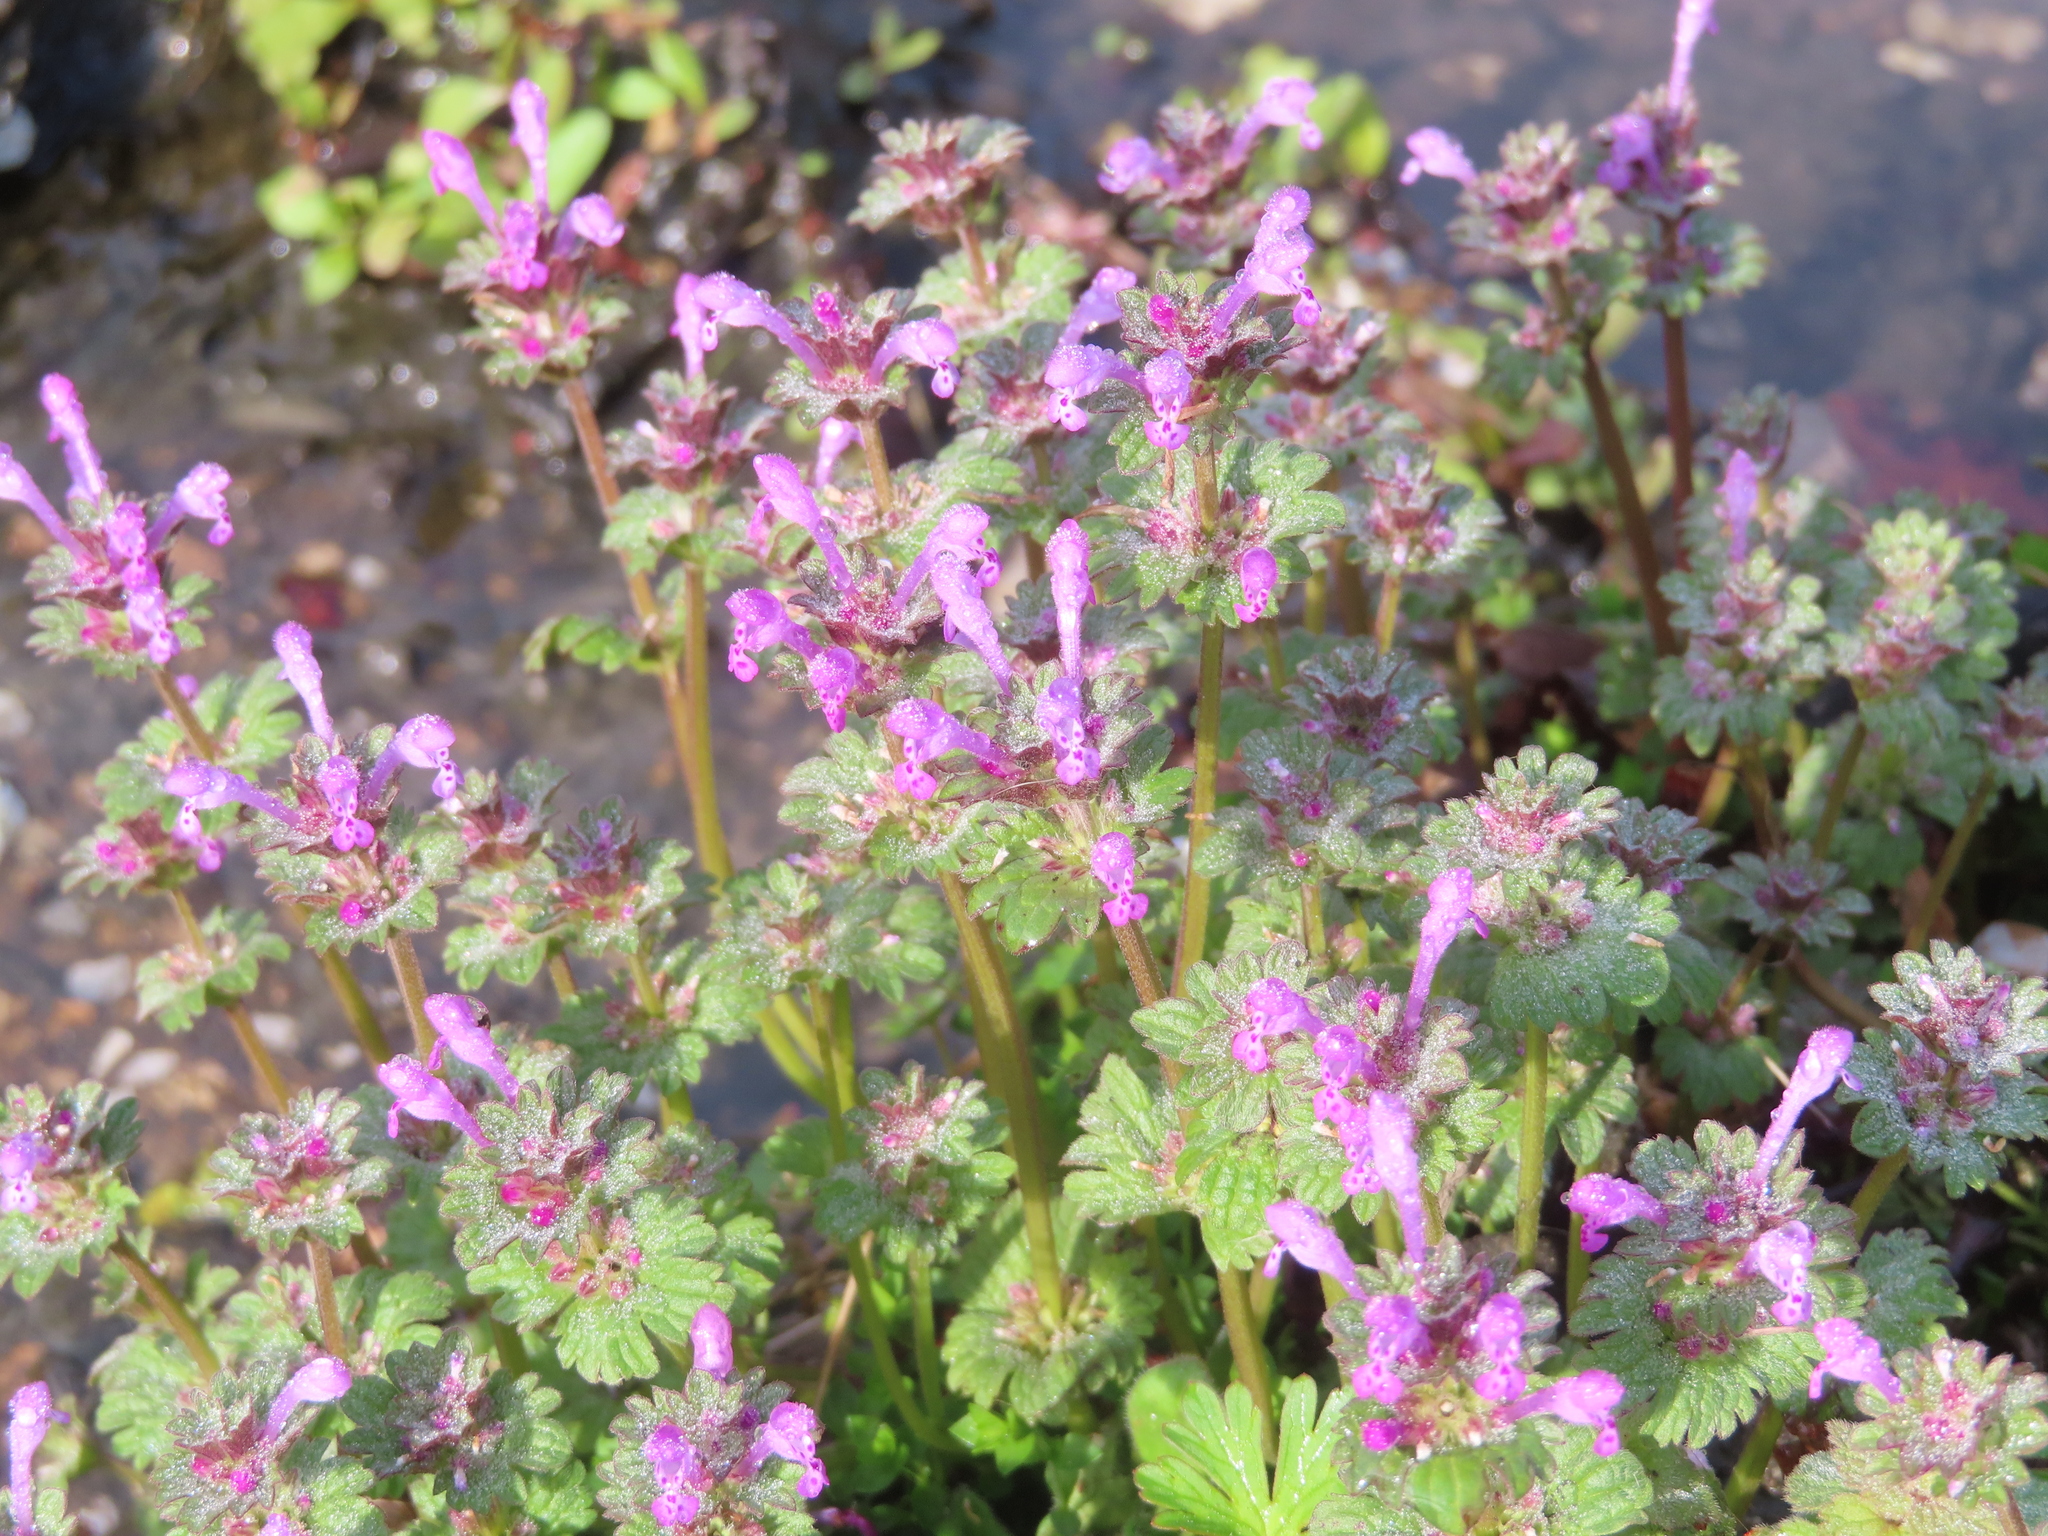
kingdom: Plantae
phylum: Tracheophyta
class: Magnoliopsida
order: Lamiales
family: Lamiaceae
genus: Lamium
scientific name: Lamium amplexicaule
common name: Henbit dead-nettle
